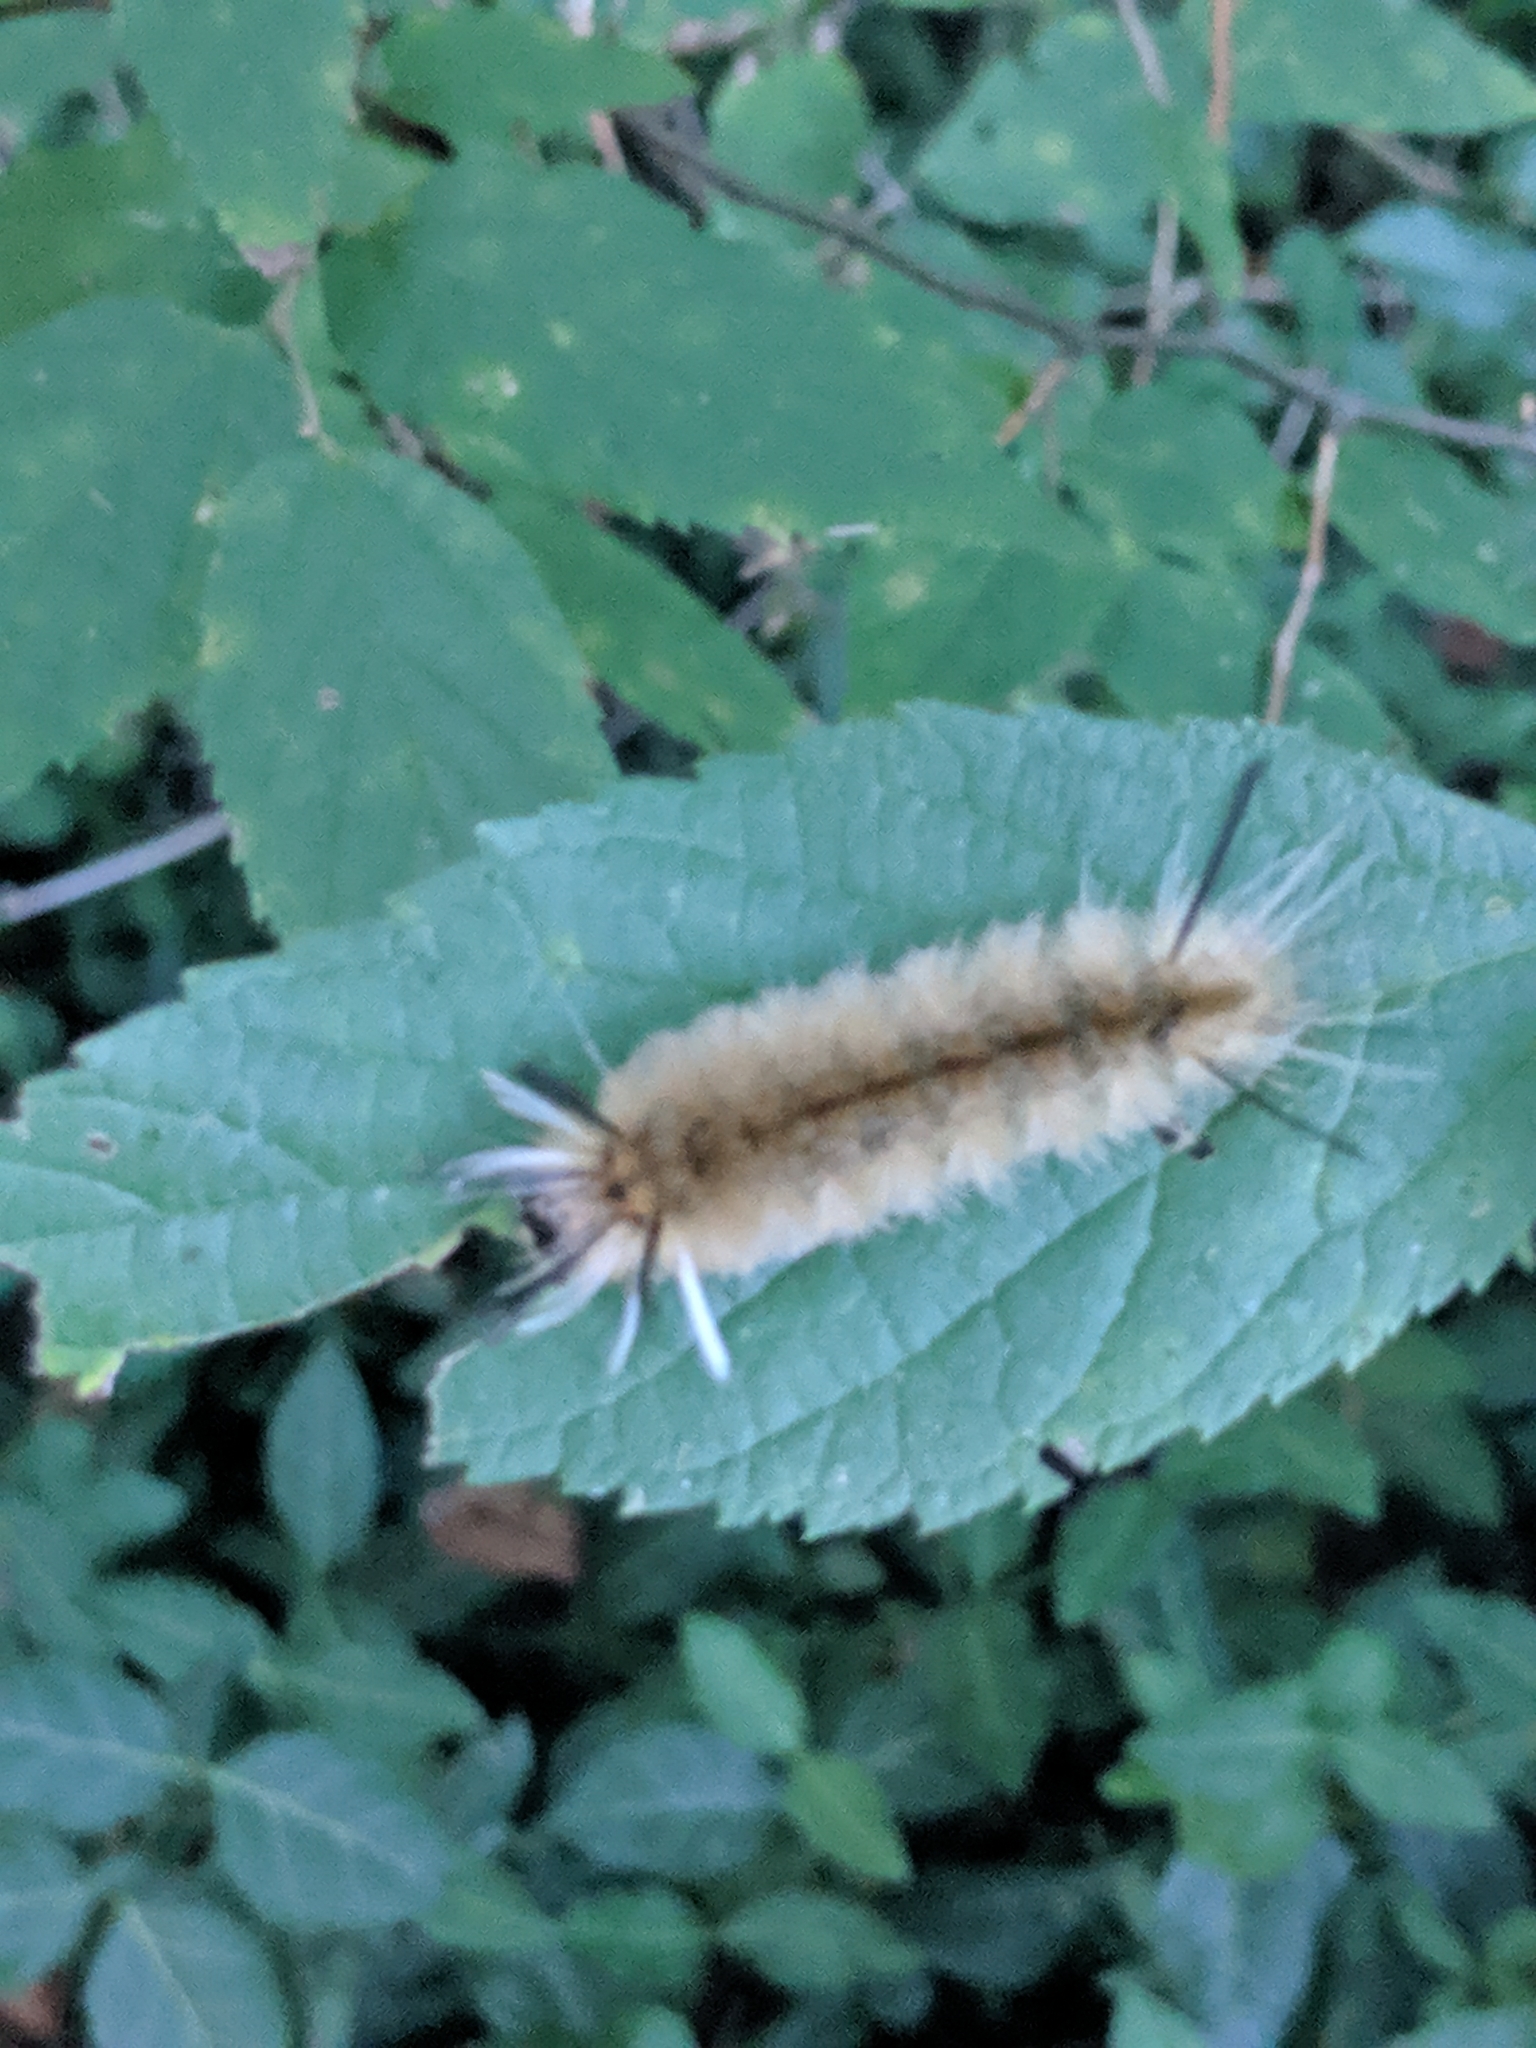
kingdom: Animalia
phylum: Arthropoda
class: Insecta
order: Lepidoptera
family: Erebidae
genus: Halysidota
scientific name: Halysidota tessellaris
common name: Banded tussock moth
